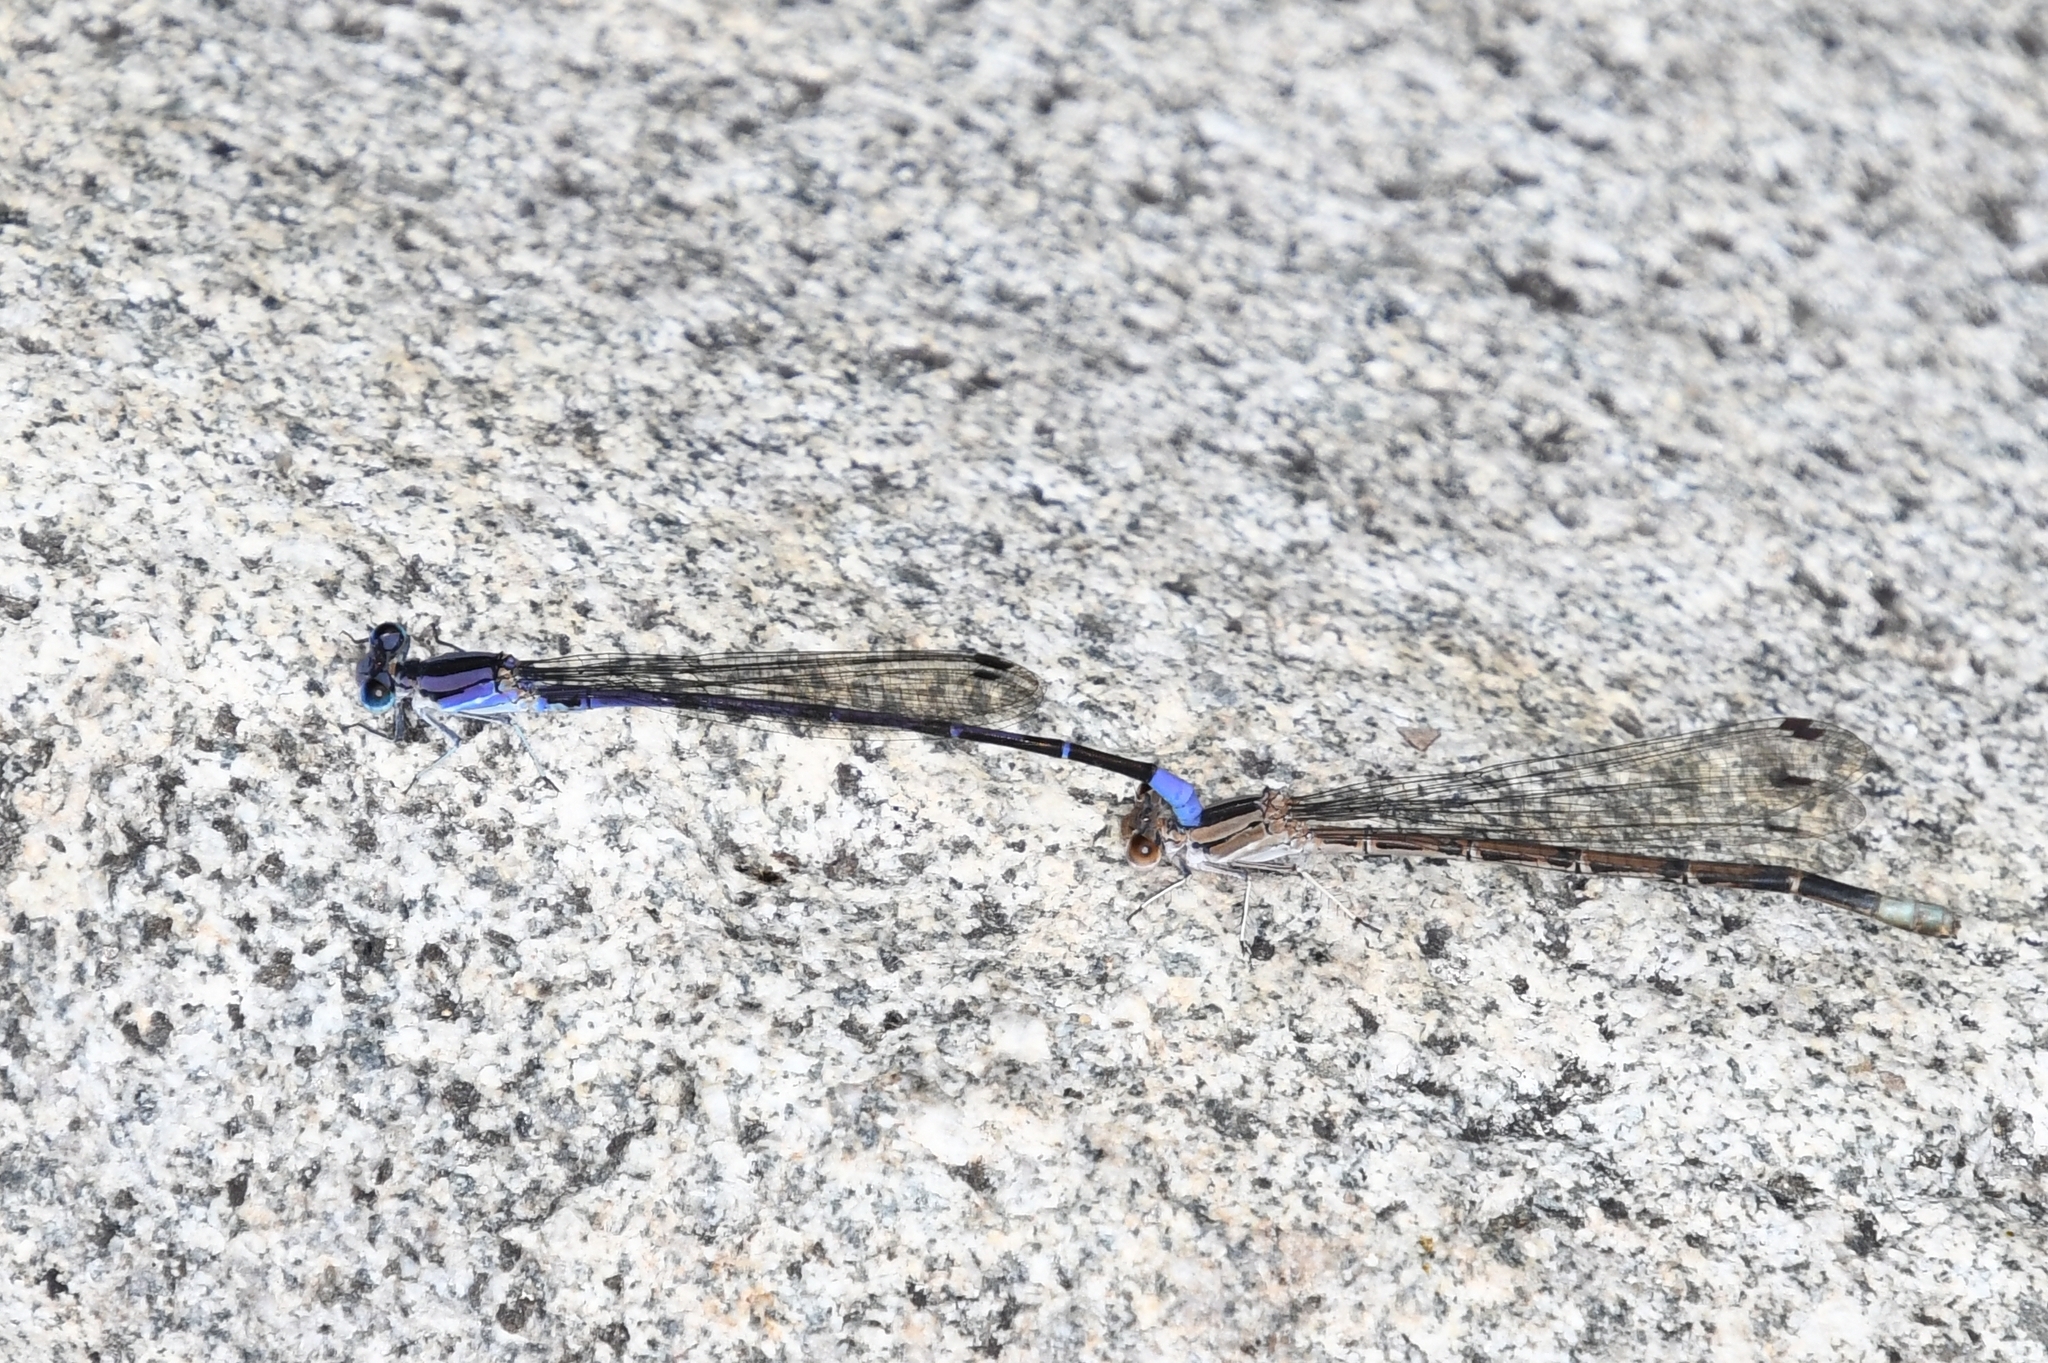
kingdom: Animalia
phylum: Arthropoda
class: Insecta
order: Odonata
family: Coenagrionidae
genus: Argia
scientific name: Argia funebris
